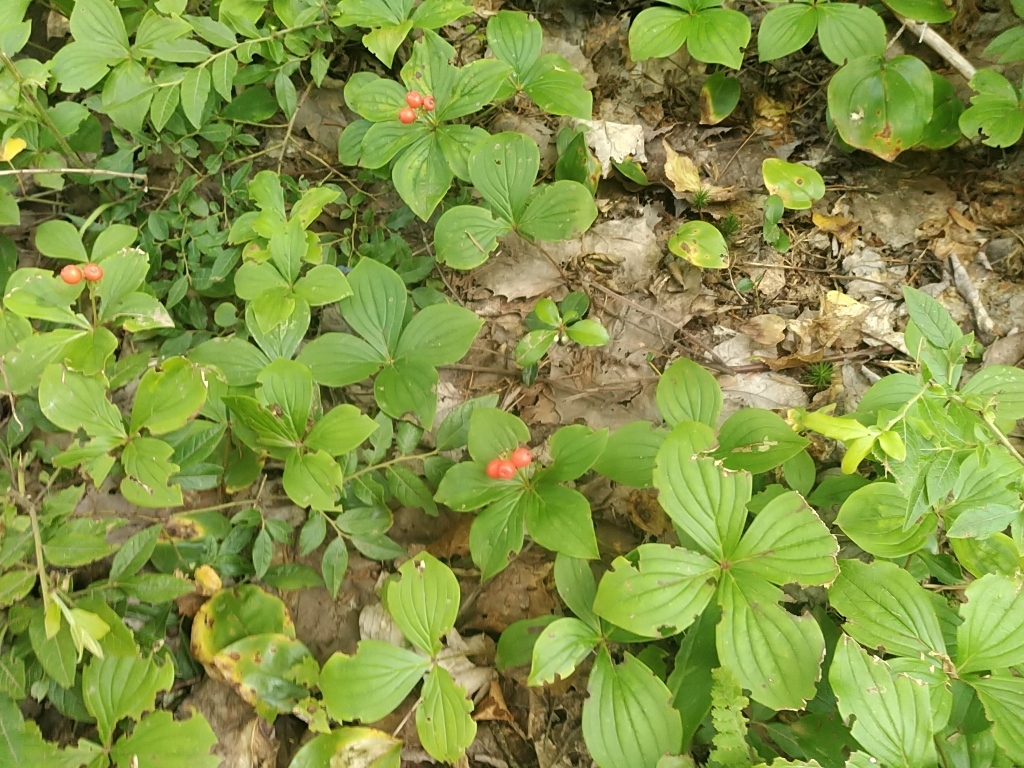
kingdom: Plantae
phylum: Tracheophyta
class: Magnoliopsida
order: Cornales
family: Cornaceae
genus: Cornus
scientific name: Cornus canadensis
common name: Creeping dogwood
